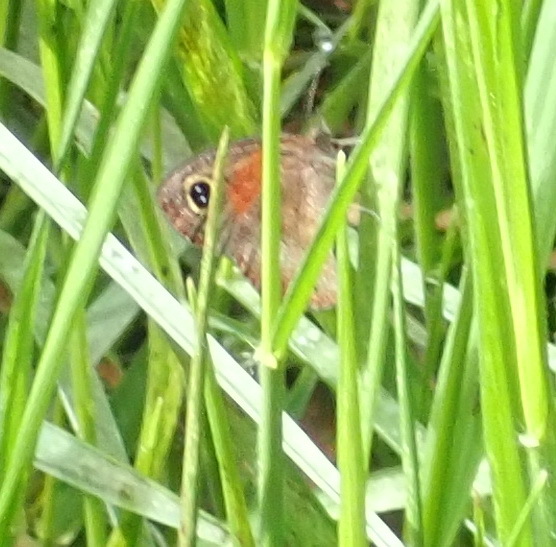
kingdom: Animalia
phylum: Arthropoda
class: Insecta
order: Lepidoptera
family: Nymphalidae
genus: Cassionympha
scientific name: Cassionympha cassius
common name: Rainforest brown
